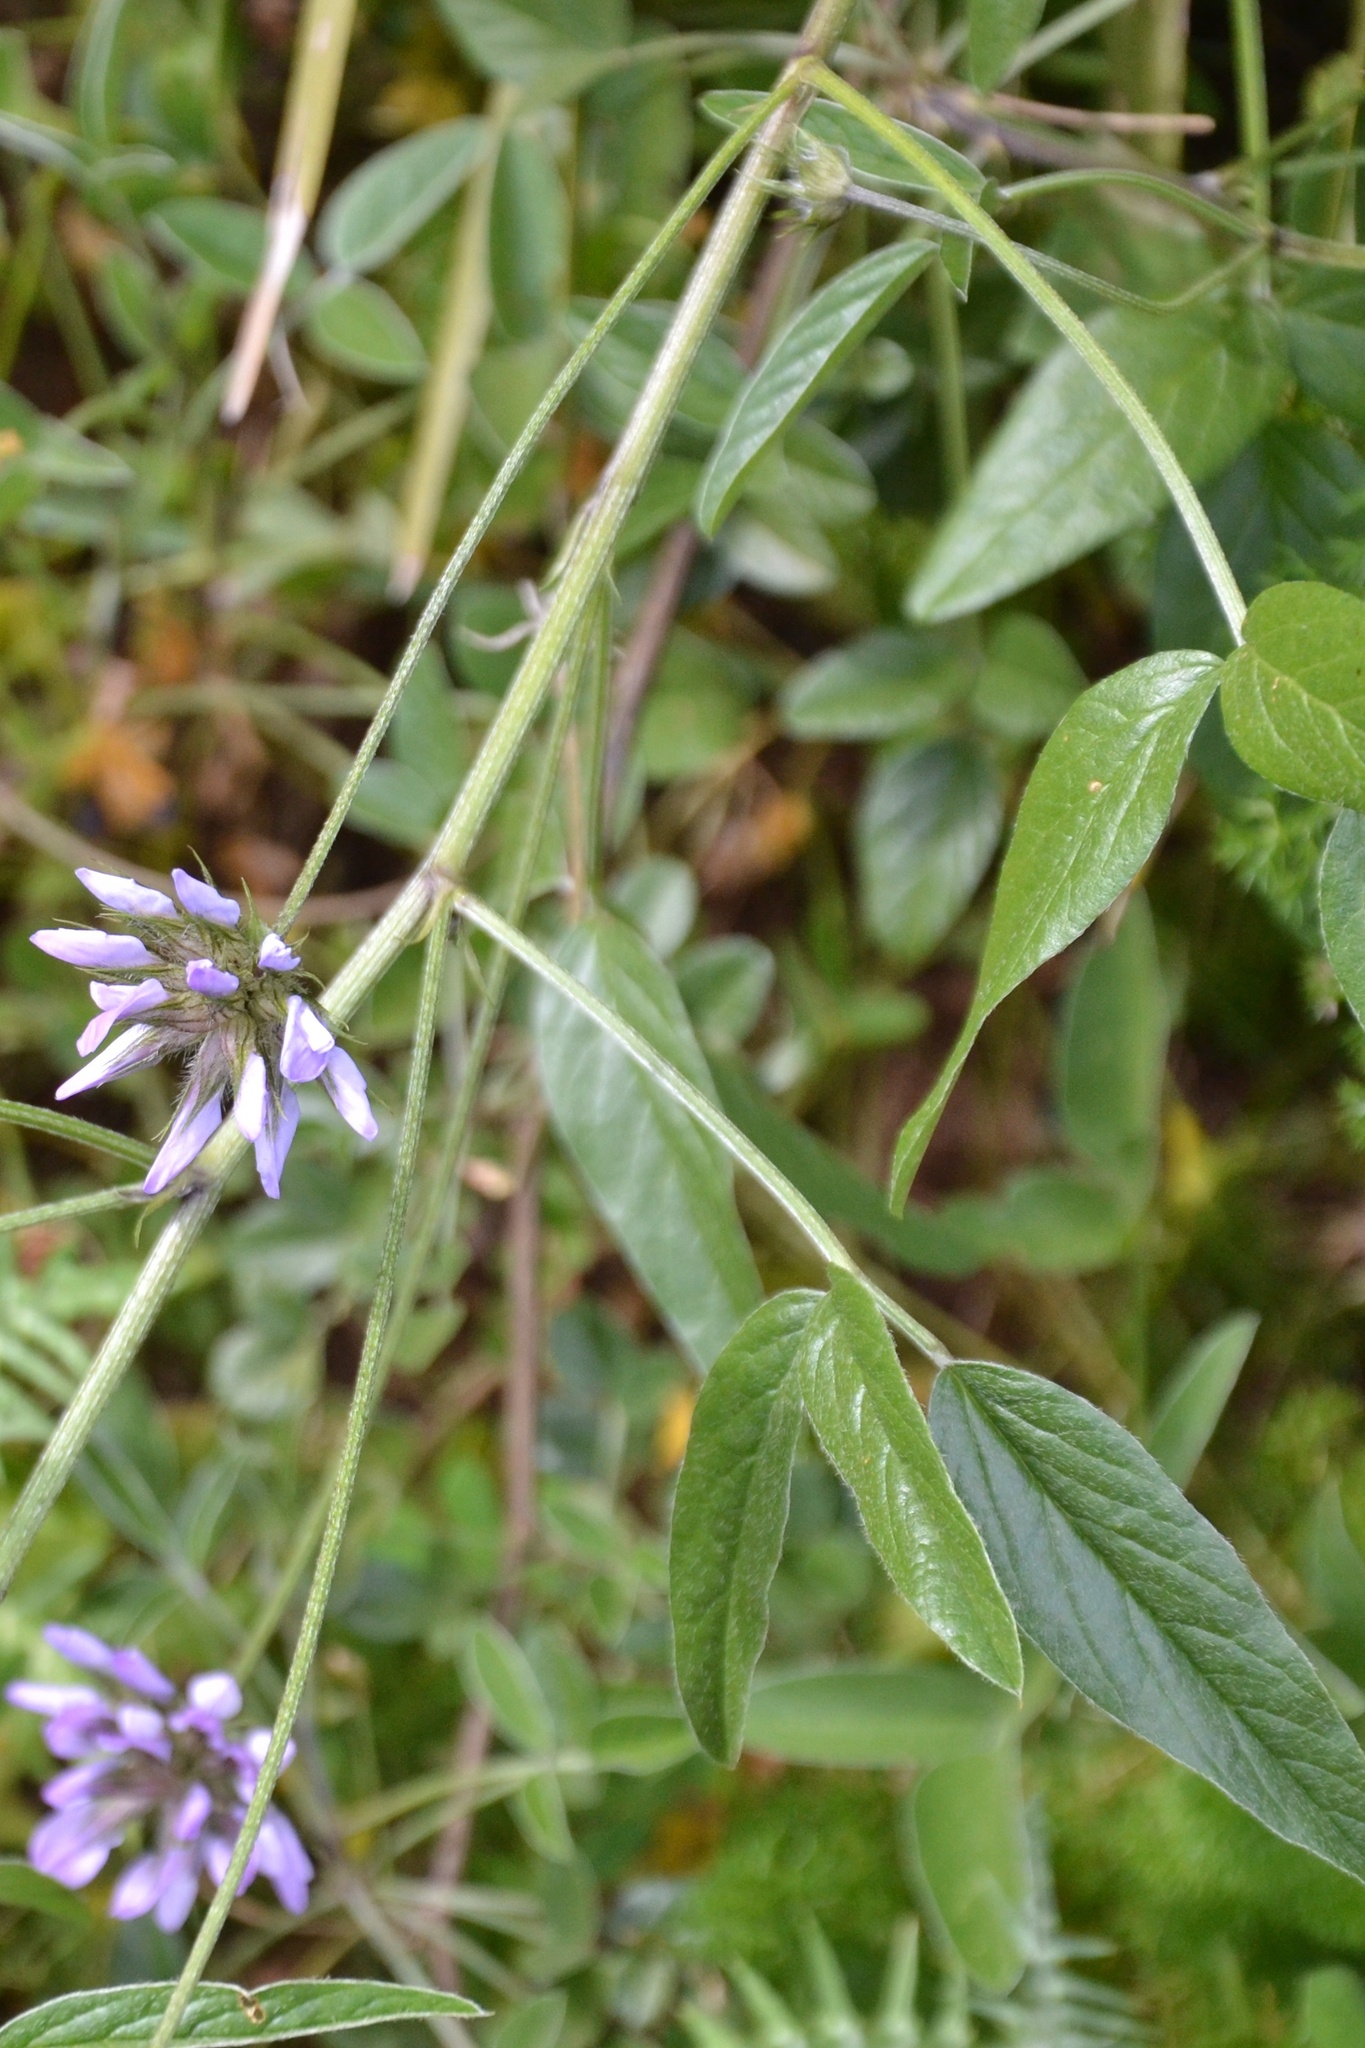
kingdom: Plantae
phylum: Tracheophyta
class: Magnoliopsida
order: Fabales
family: Fabaceae
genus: Bituminaria
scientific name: Bituminaria bituminosa
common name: Arabian pea
